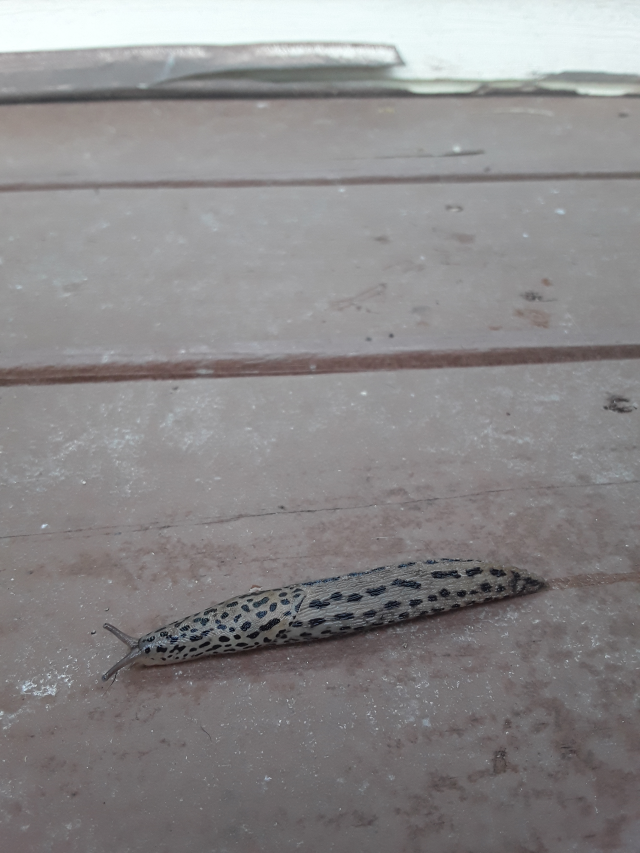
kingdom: Animalia
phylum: Mollusca
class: Gastropoda
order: Stylommatophora
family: Limacidae
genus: Limax
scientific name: Limax maximus
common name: Great grey slug
